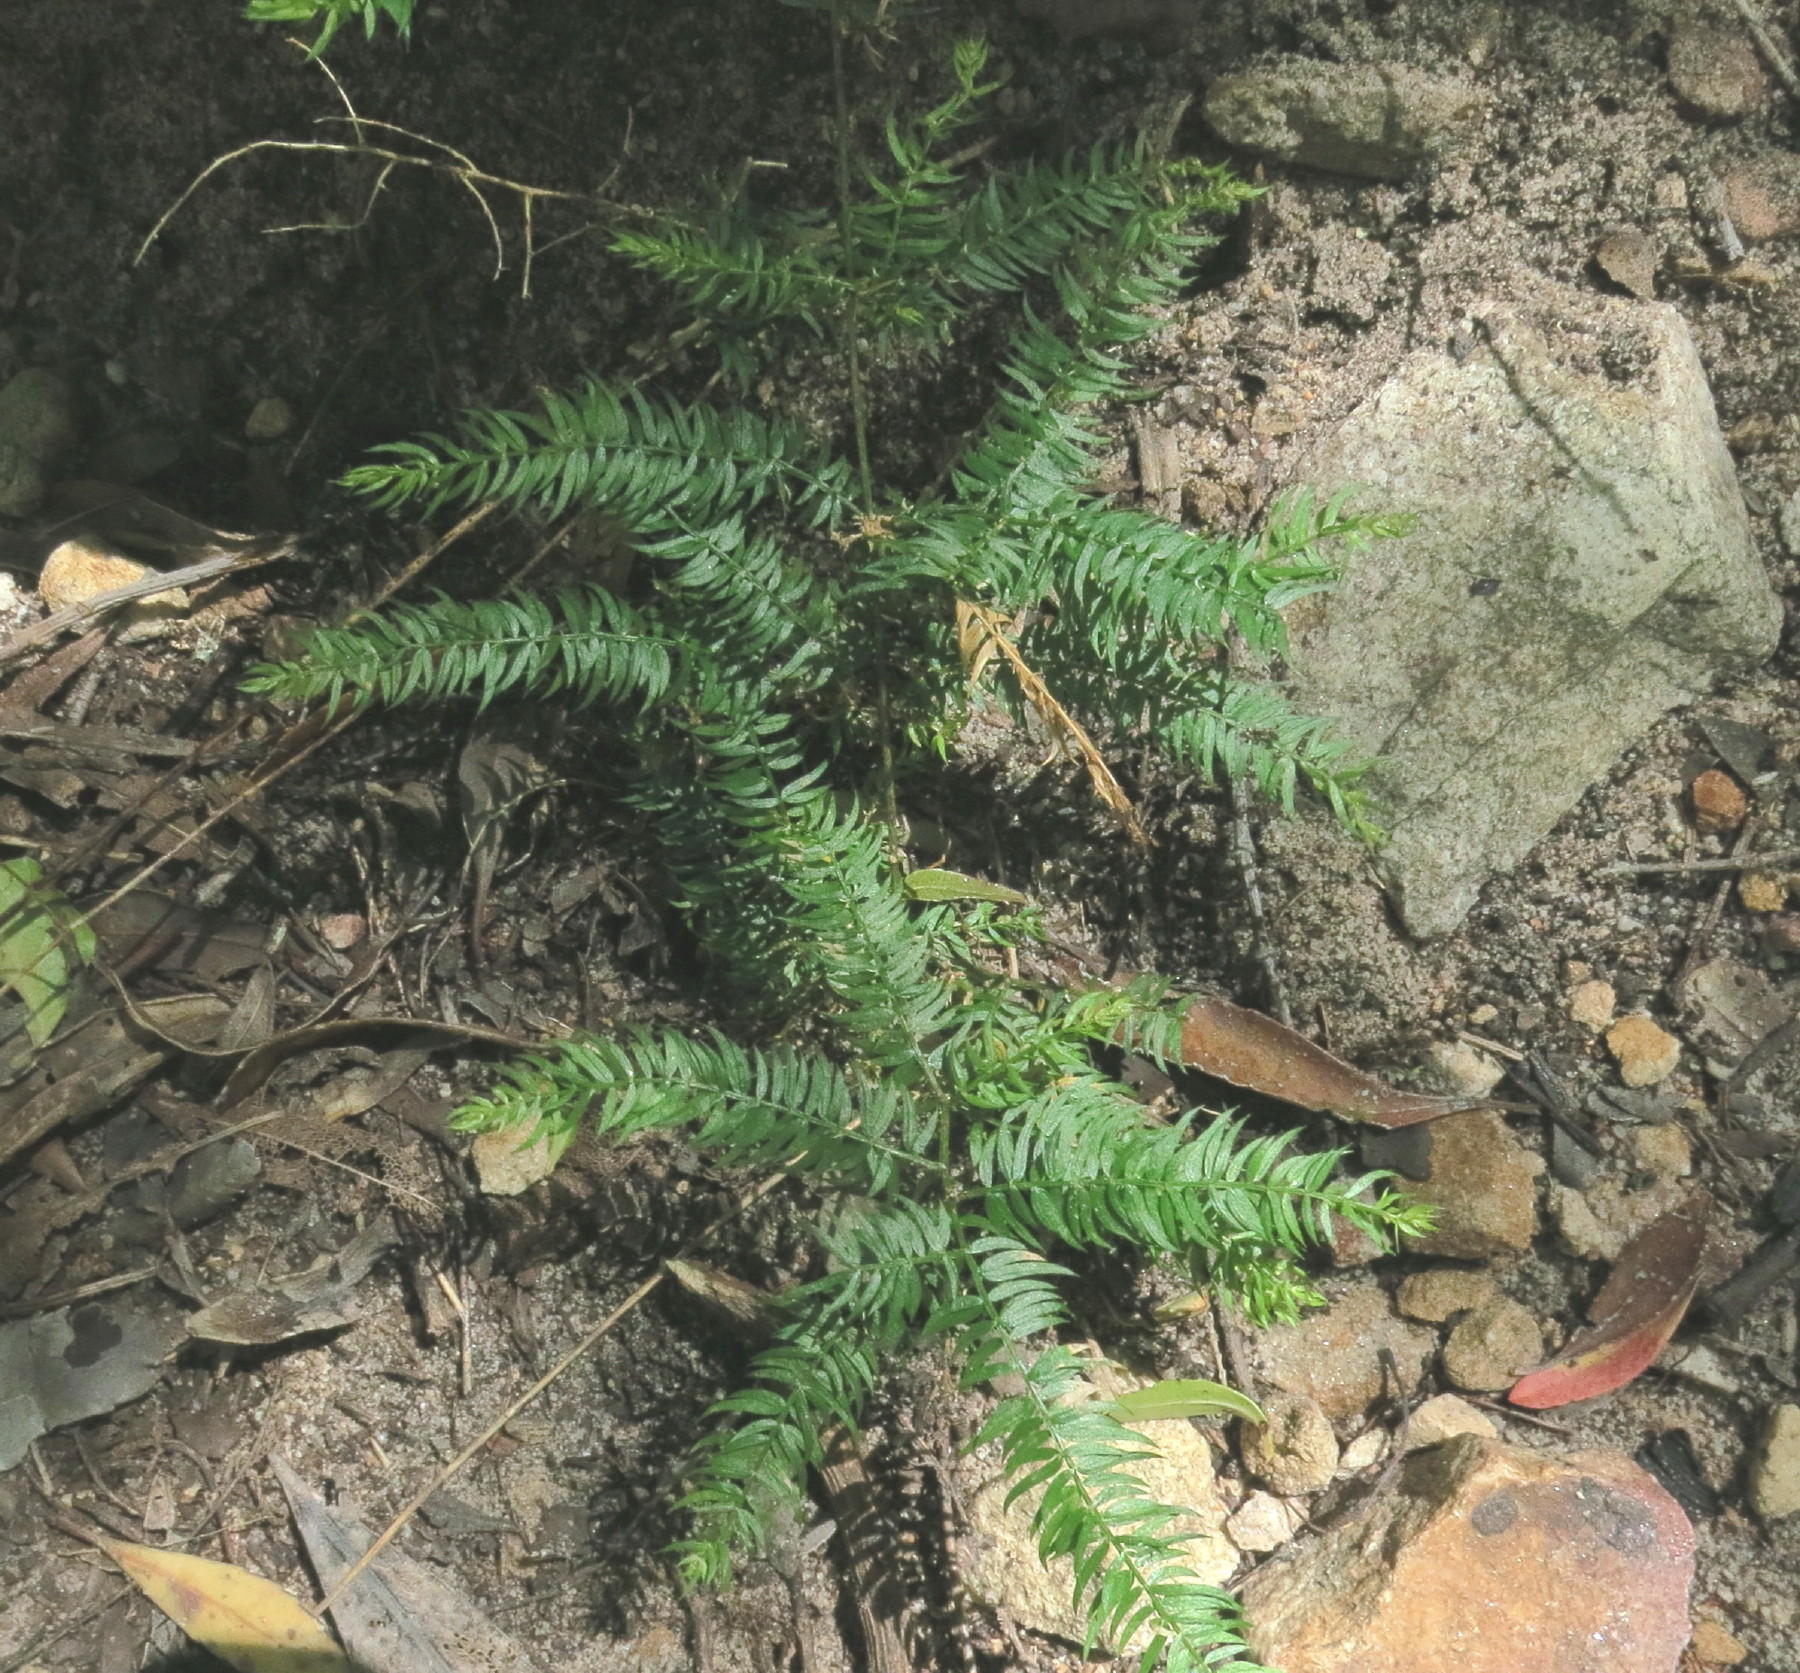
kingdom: Plantae
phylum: Tracheophyta
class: Liliopsida
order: Asparagales
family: Asparagaceae
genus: Asparagus
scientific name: Asparagus scandens
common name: Asparagus-fern
